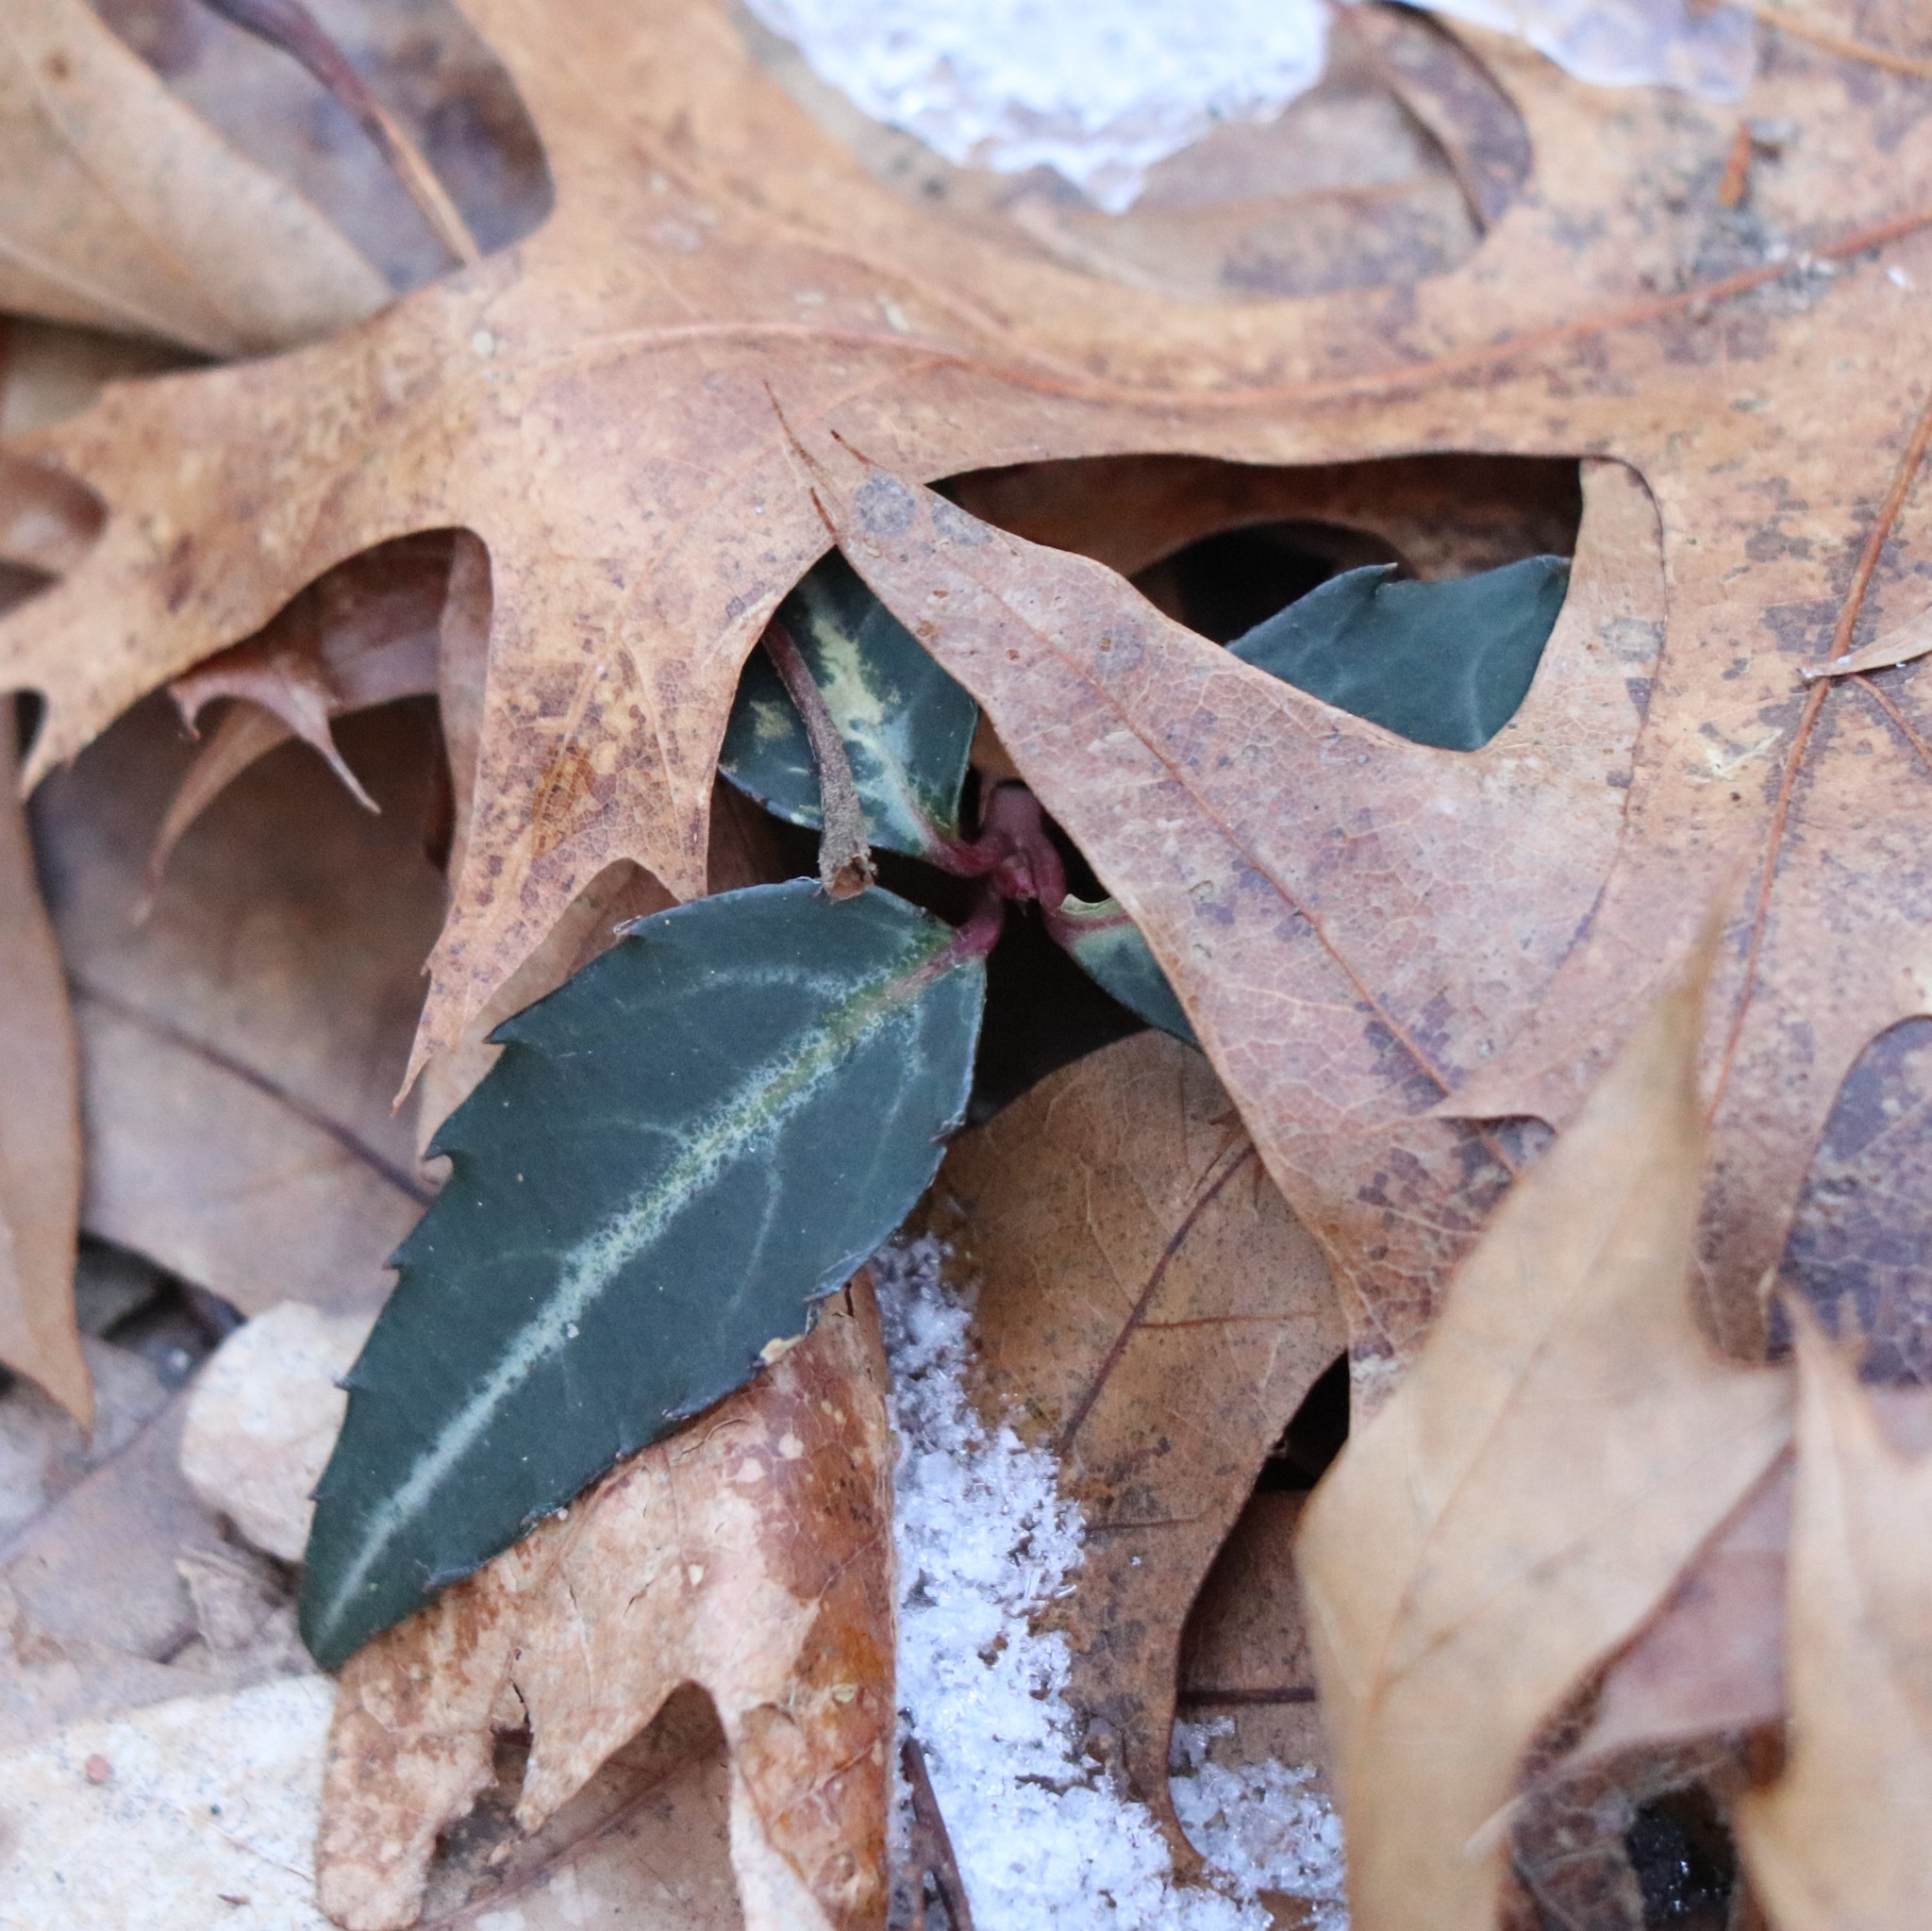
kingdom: Plantae
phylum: Tracheophyta
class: Magnoliopsida
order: Ericales
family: Ericaceae
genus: Chimaphila
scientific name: Chimaphila maculata
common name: Spotted pipsissewa
